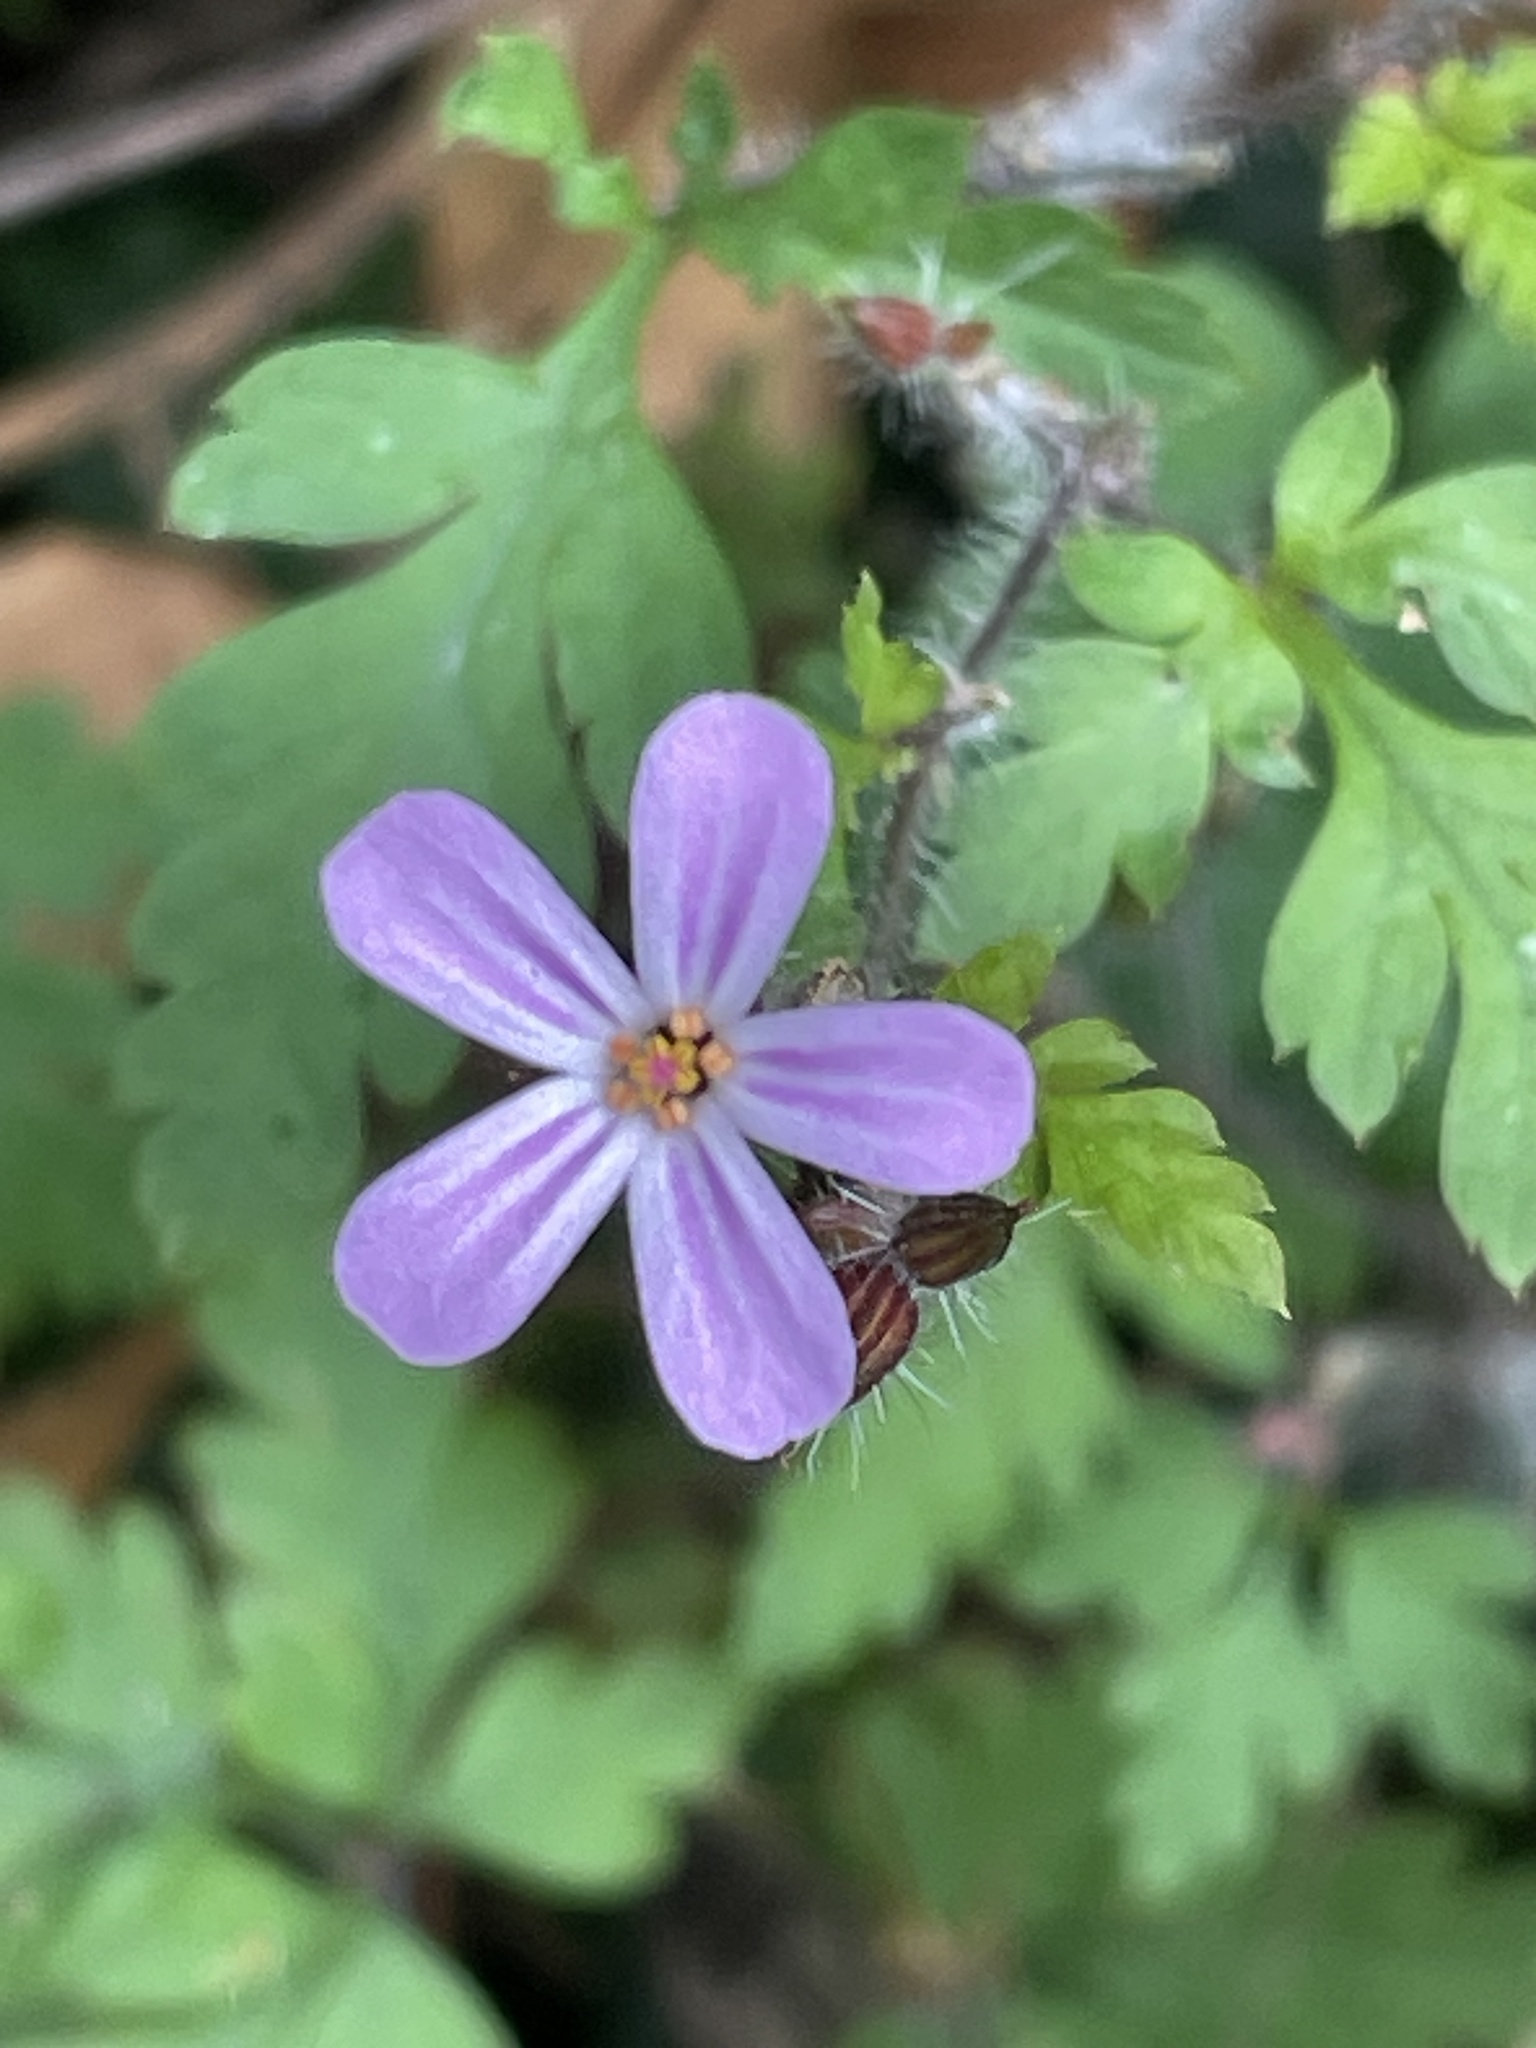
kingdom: Plantae
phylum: Tracheophyta
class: Magnoliopsida
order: Geraniales
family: Geraniaceae
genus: Geranium
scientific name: Geranium robertianum
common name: Herb-robert
